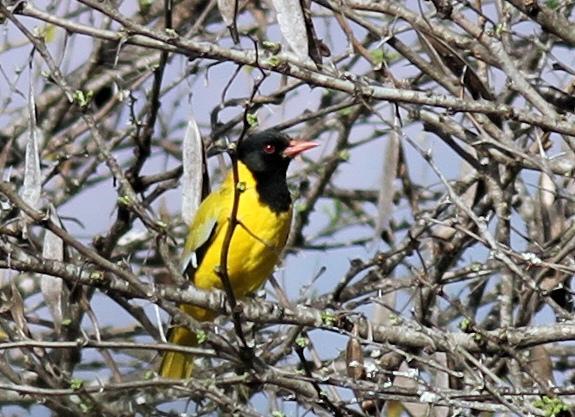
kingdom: Animalia
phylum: Chordata
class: Aves
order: Passeriformes
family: Oriolidae
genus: Oriolus
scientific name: Oriolus larvatus
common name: Black-headed oriole
